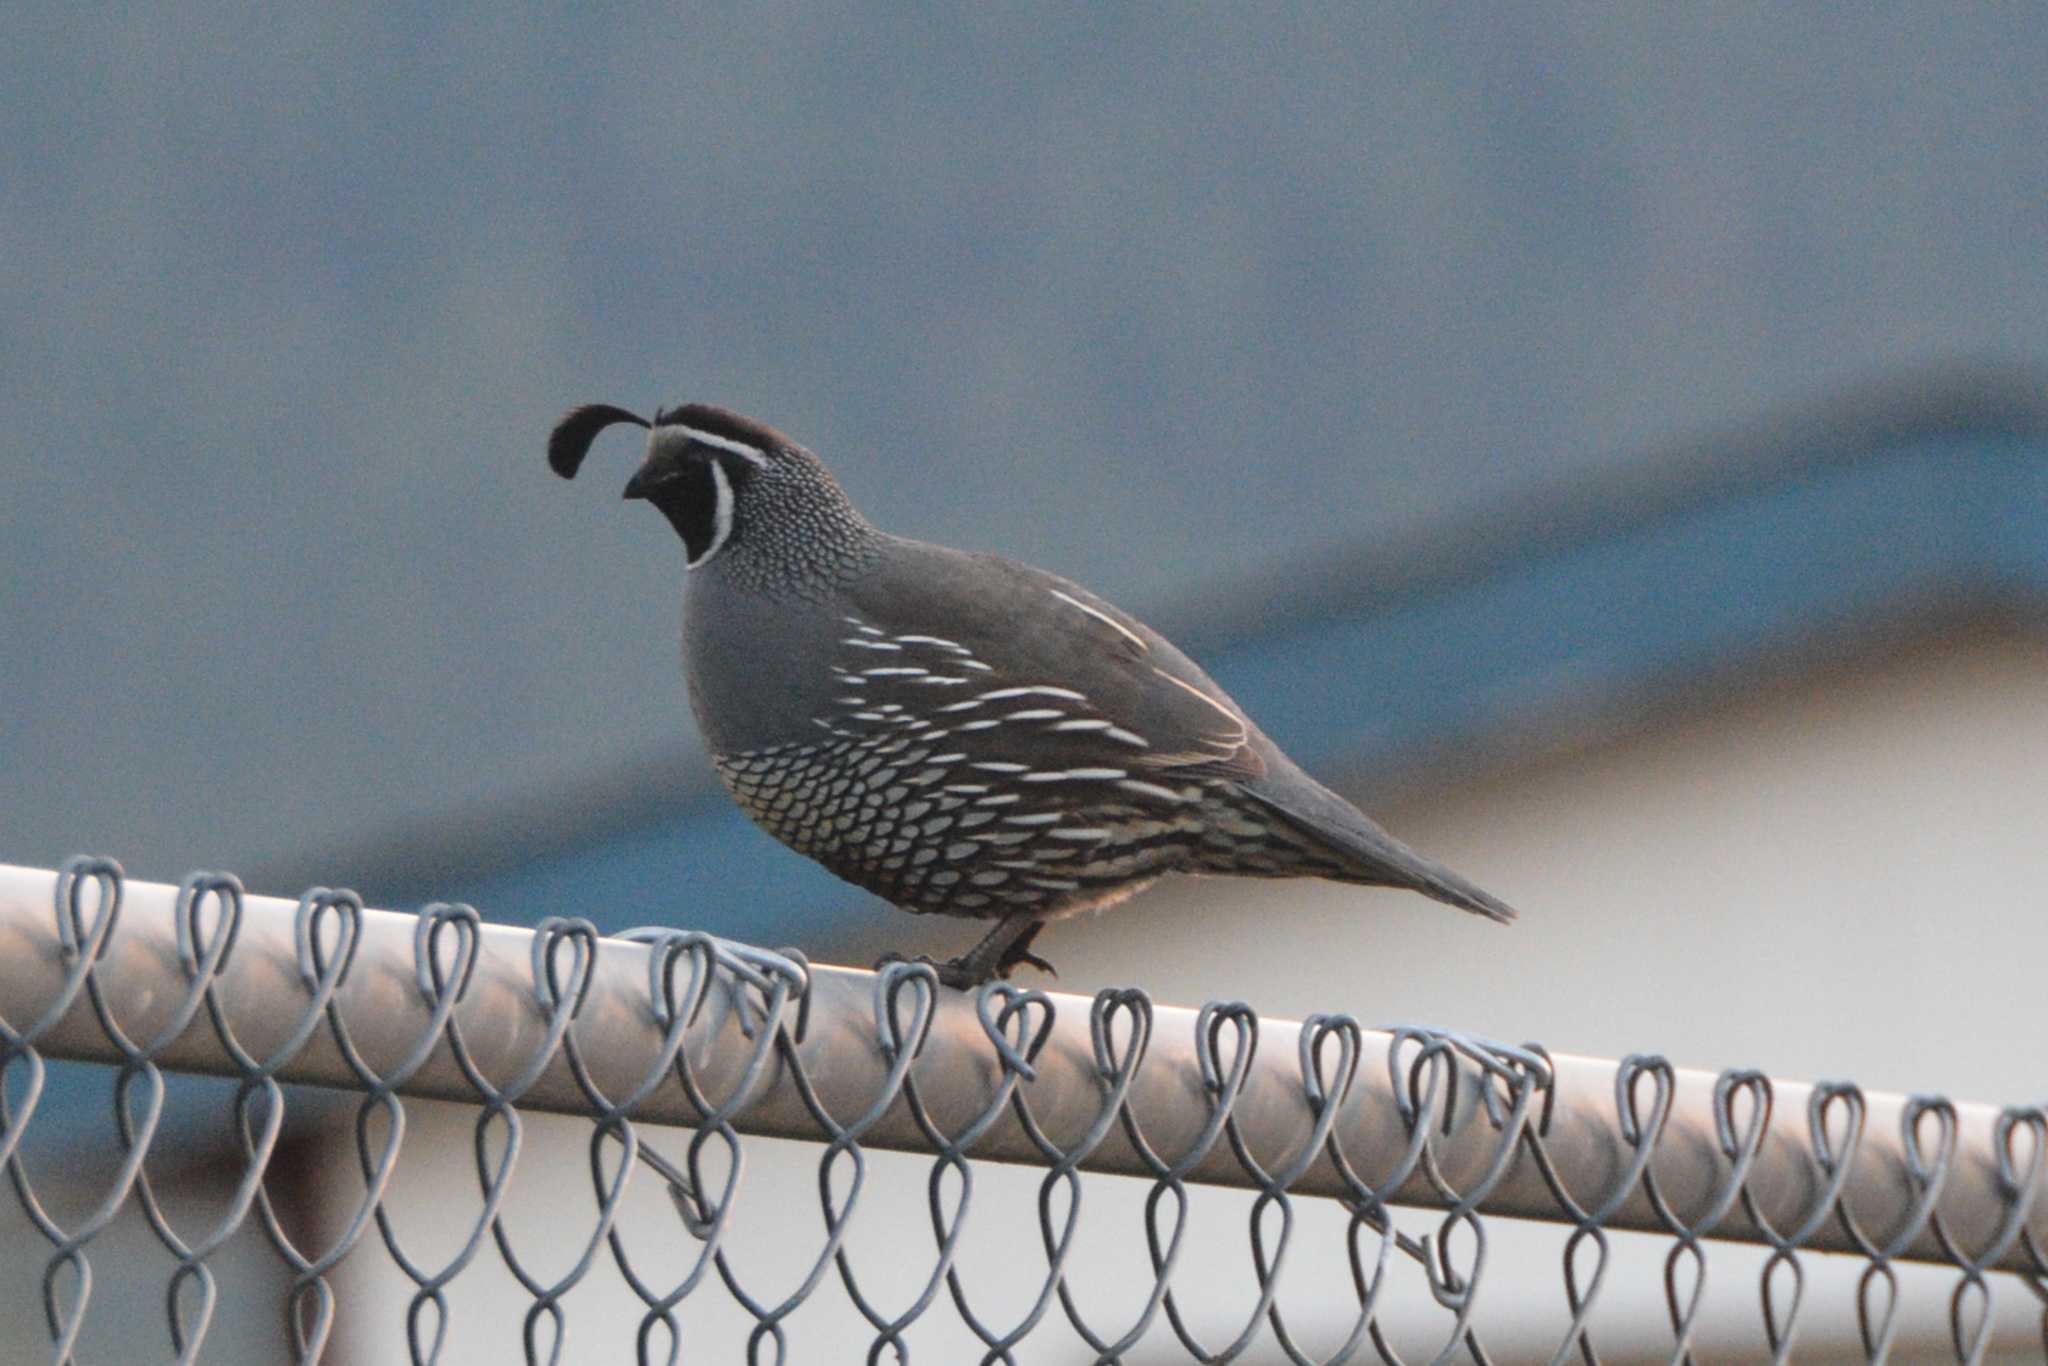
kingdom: Animalia
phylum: Chordata
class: Aves
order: Galliformes
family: Odontophoridae
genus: Callipepla
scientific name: Callipepla californica
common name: California quail
